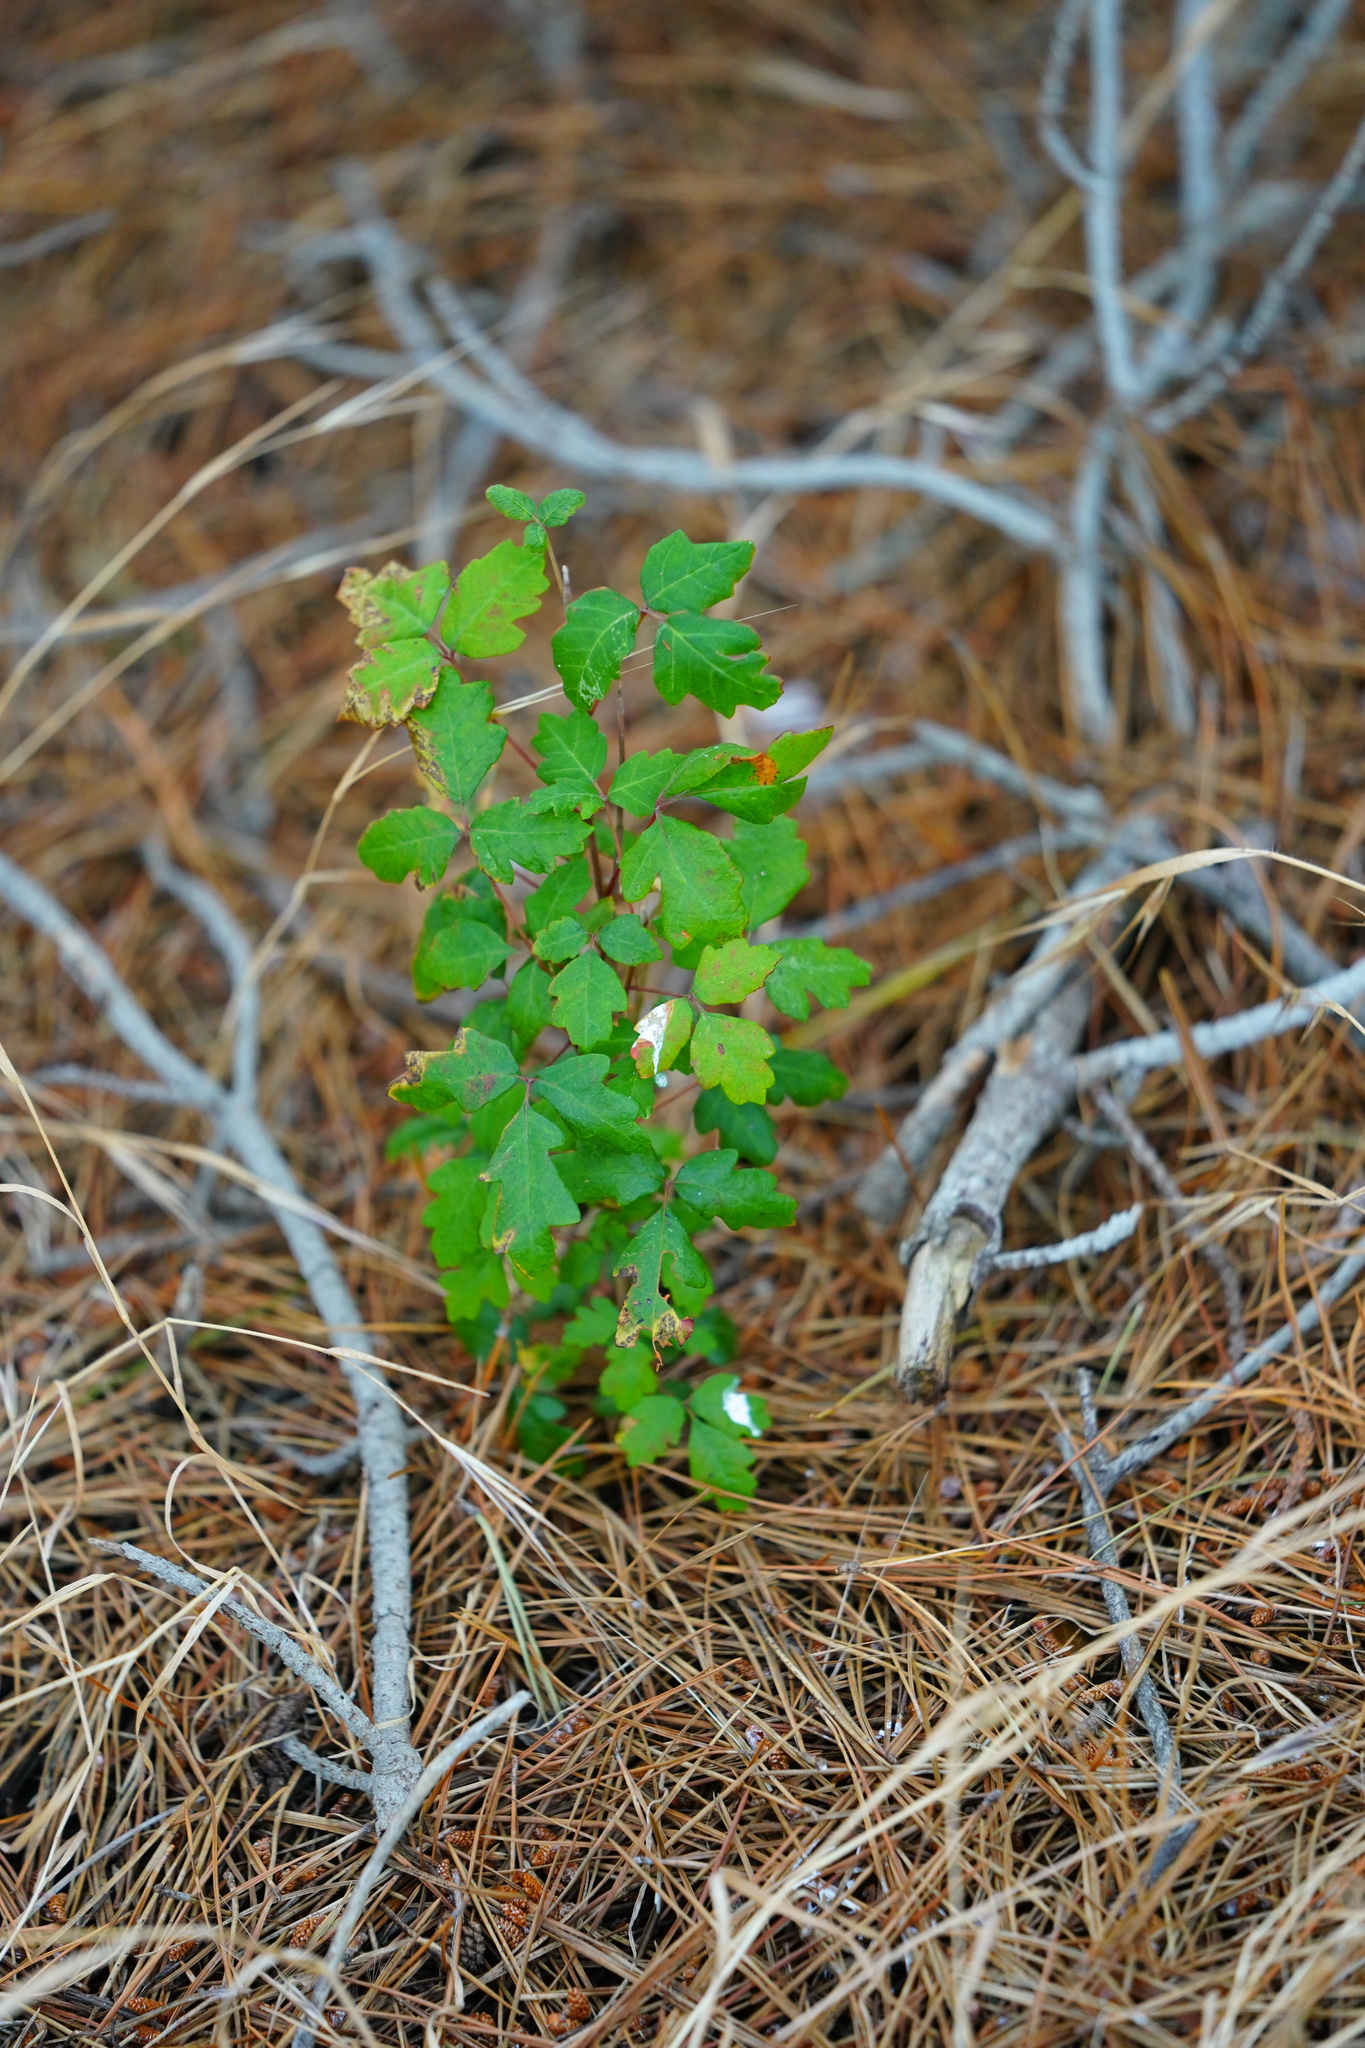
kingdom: Plantae
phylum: Tracheophyta
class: Magnoliopsida
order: Sapindales
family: Anacardiaceae
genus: Toxicodendron
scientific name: Toxicodendron diversilobum
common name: Pacific poison-oak
